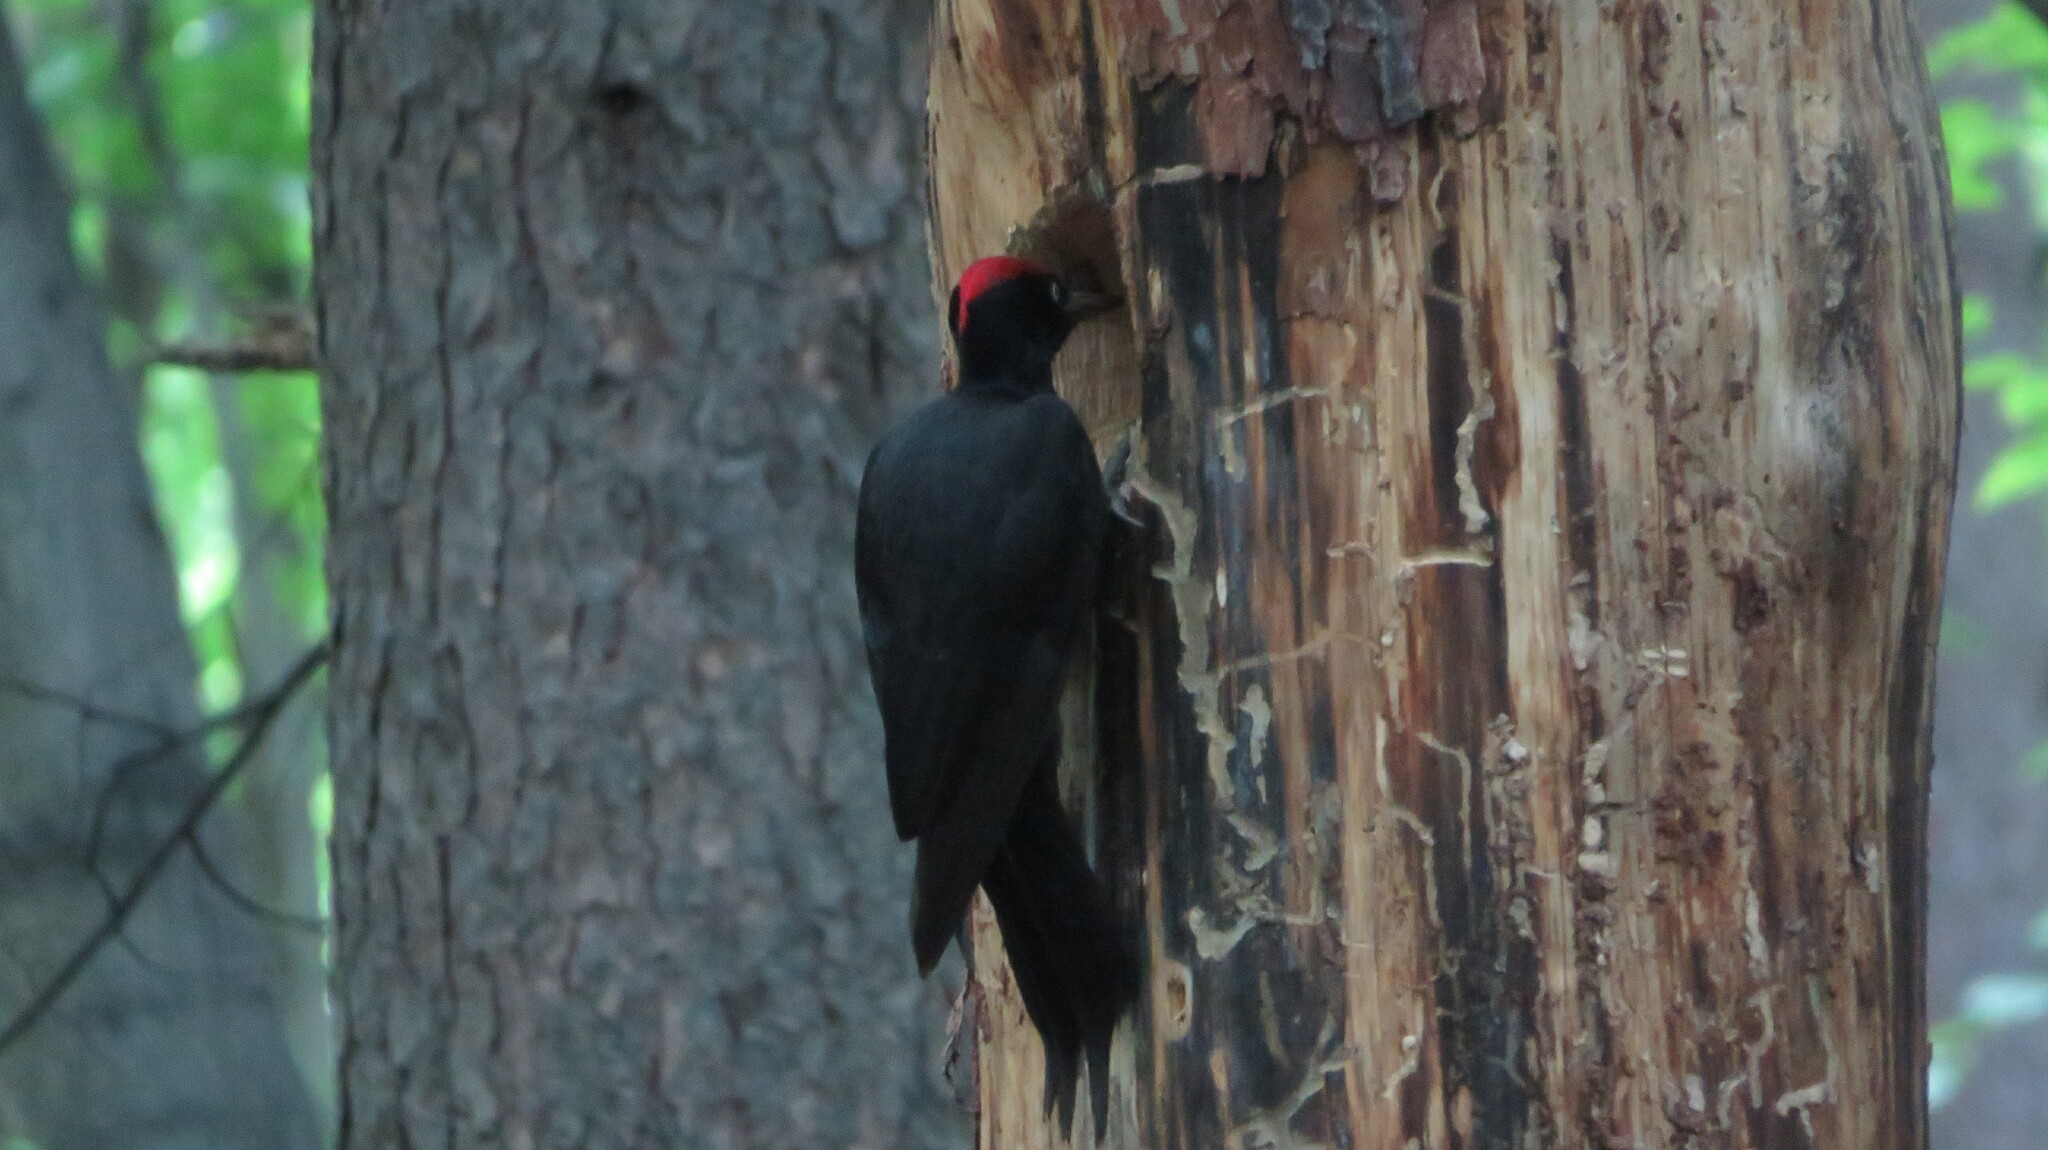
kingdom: Animalia
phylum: Chordata
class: Aves
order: Piciformes
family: Picidae
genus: Dryocopus
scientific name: Dryocopus martius
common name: Black woodpecker
